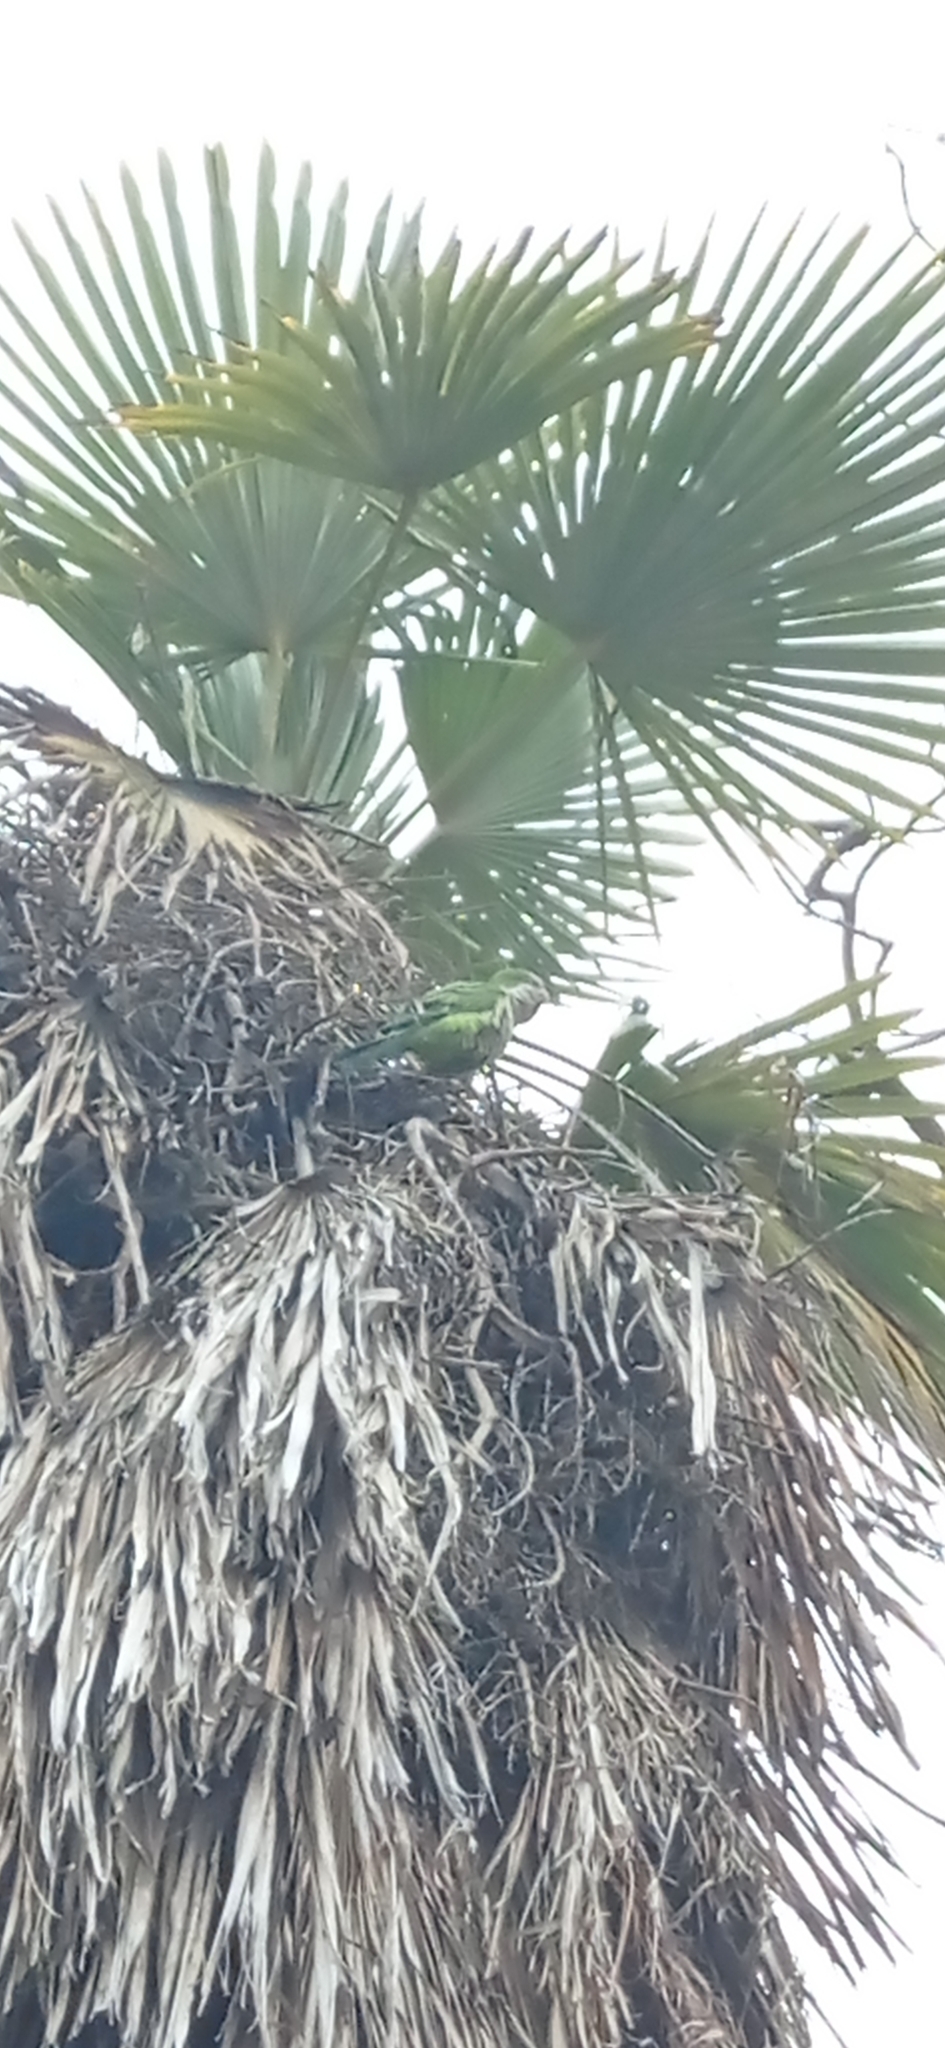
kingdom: Animalia
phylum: Chordata
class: Aves
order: Psittaciformes
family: Psittacidae
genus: Myiopsitta
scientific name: Myiopsitta monachus
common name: Monk parakeet
